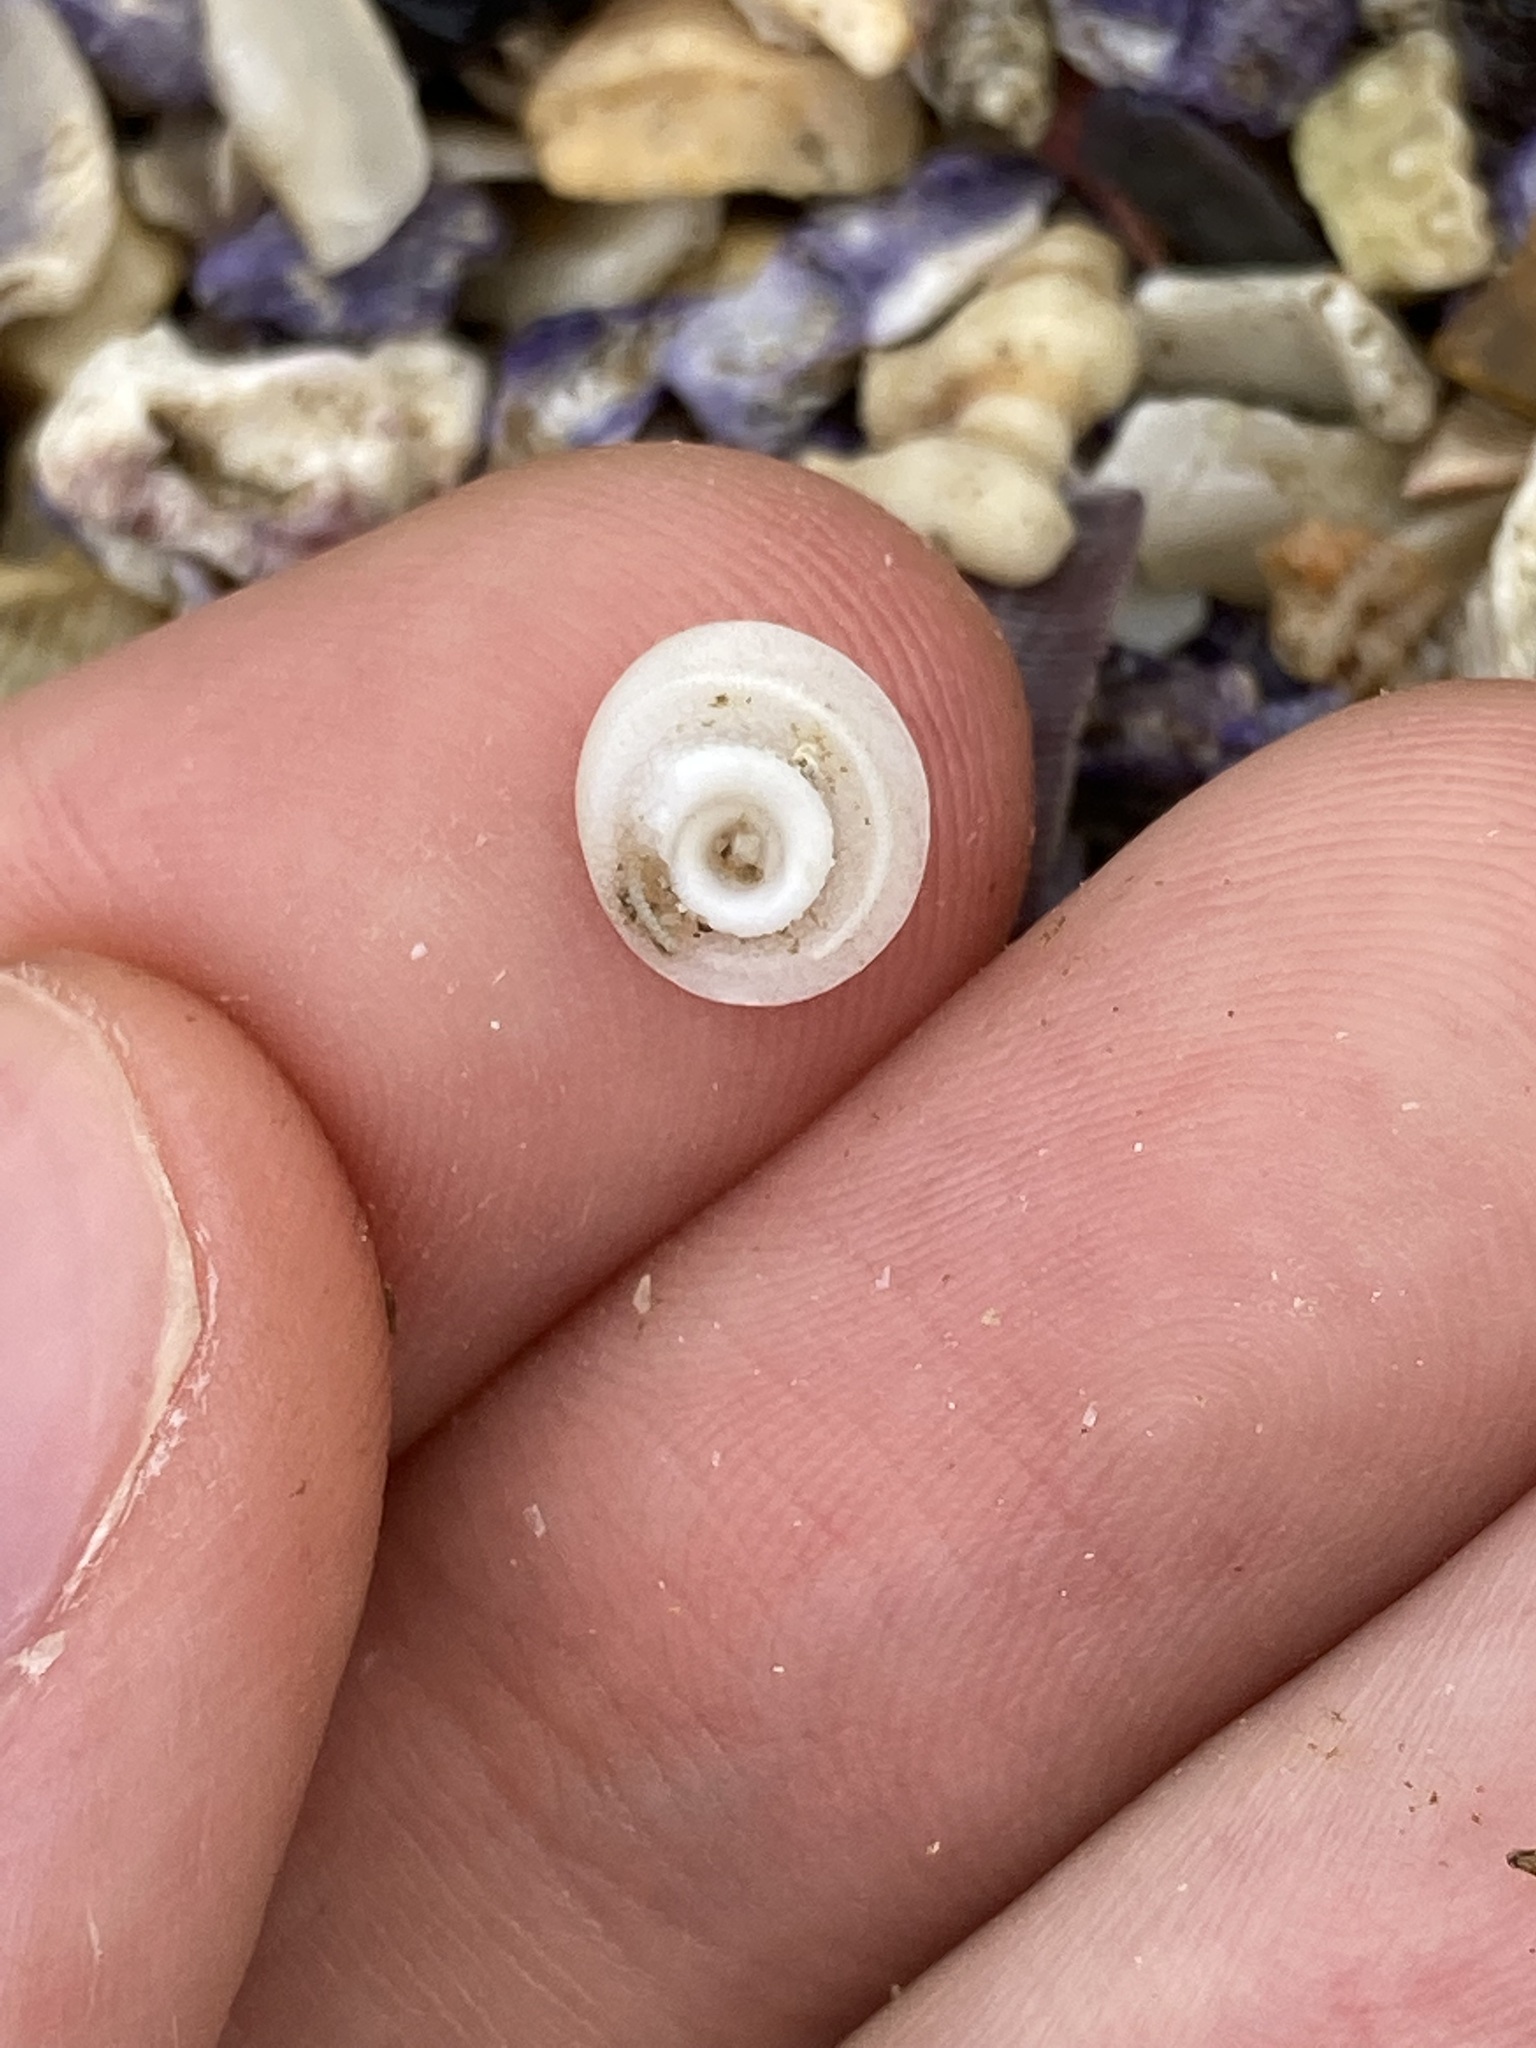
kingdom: Animalia
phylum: Mollusca
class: Gastropoda
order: Trochida
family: Turbinidae
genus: Lunella
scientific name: Lunella torquata
